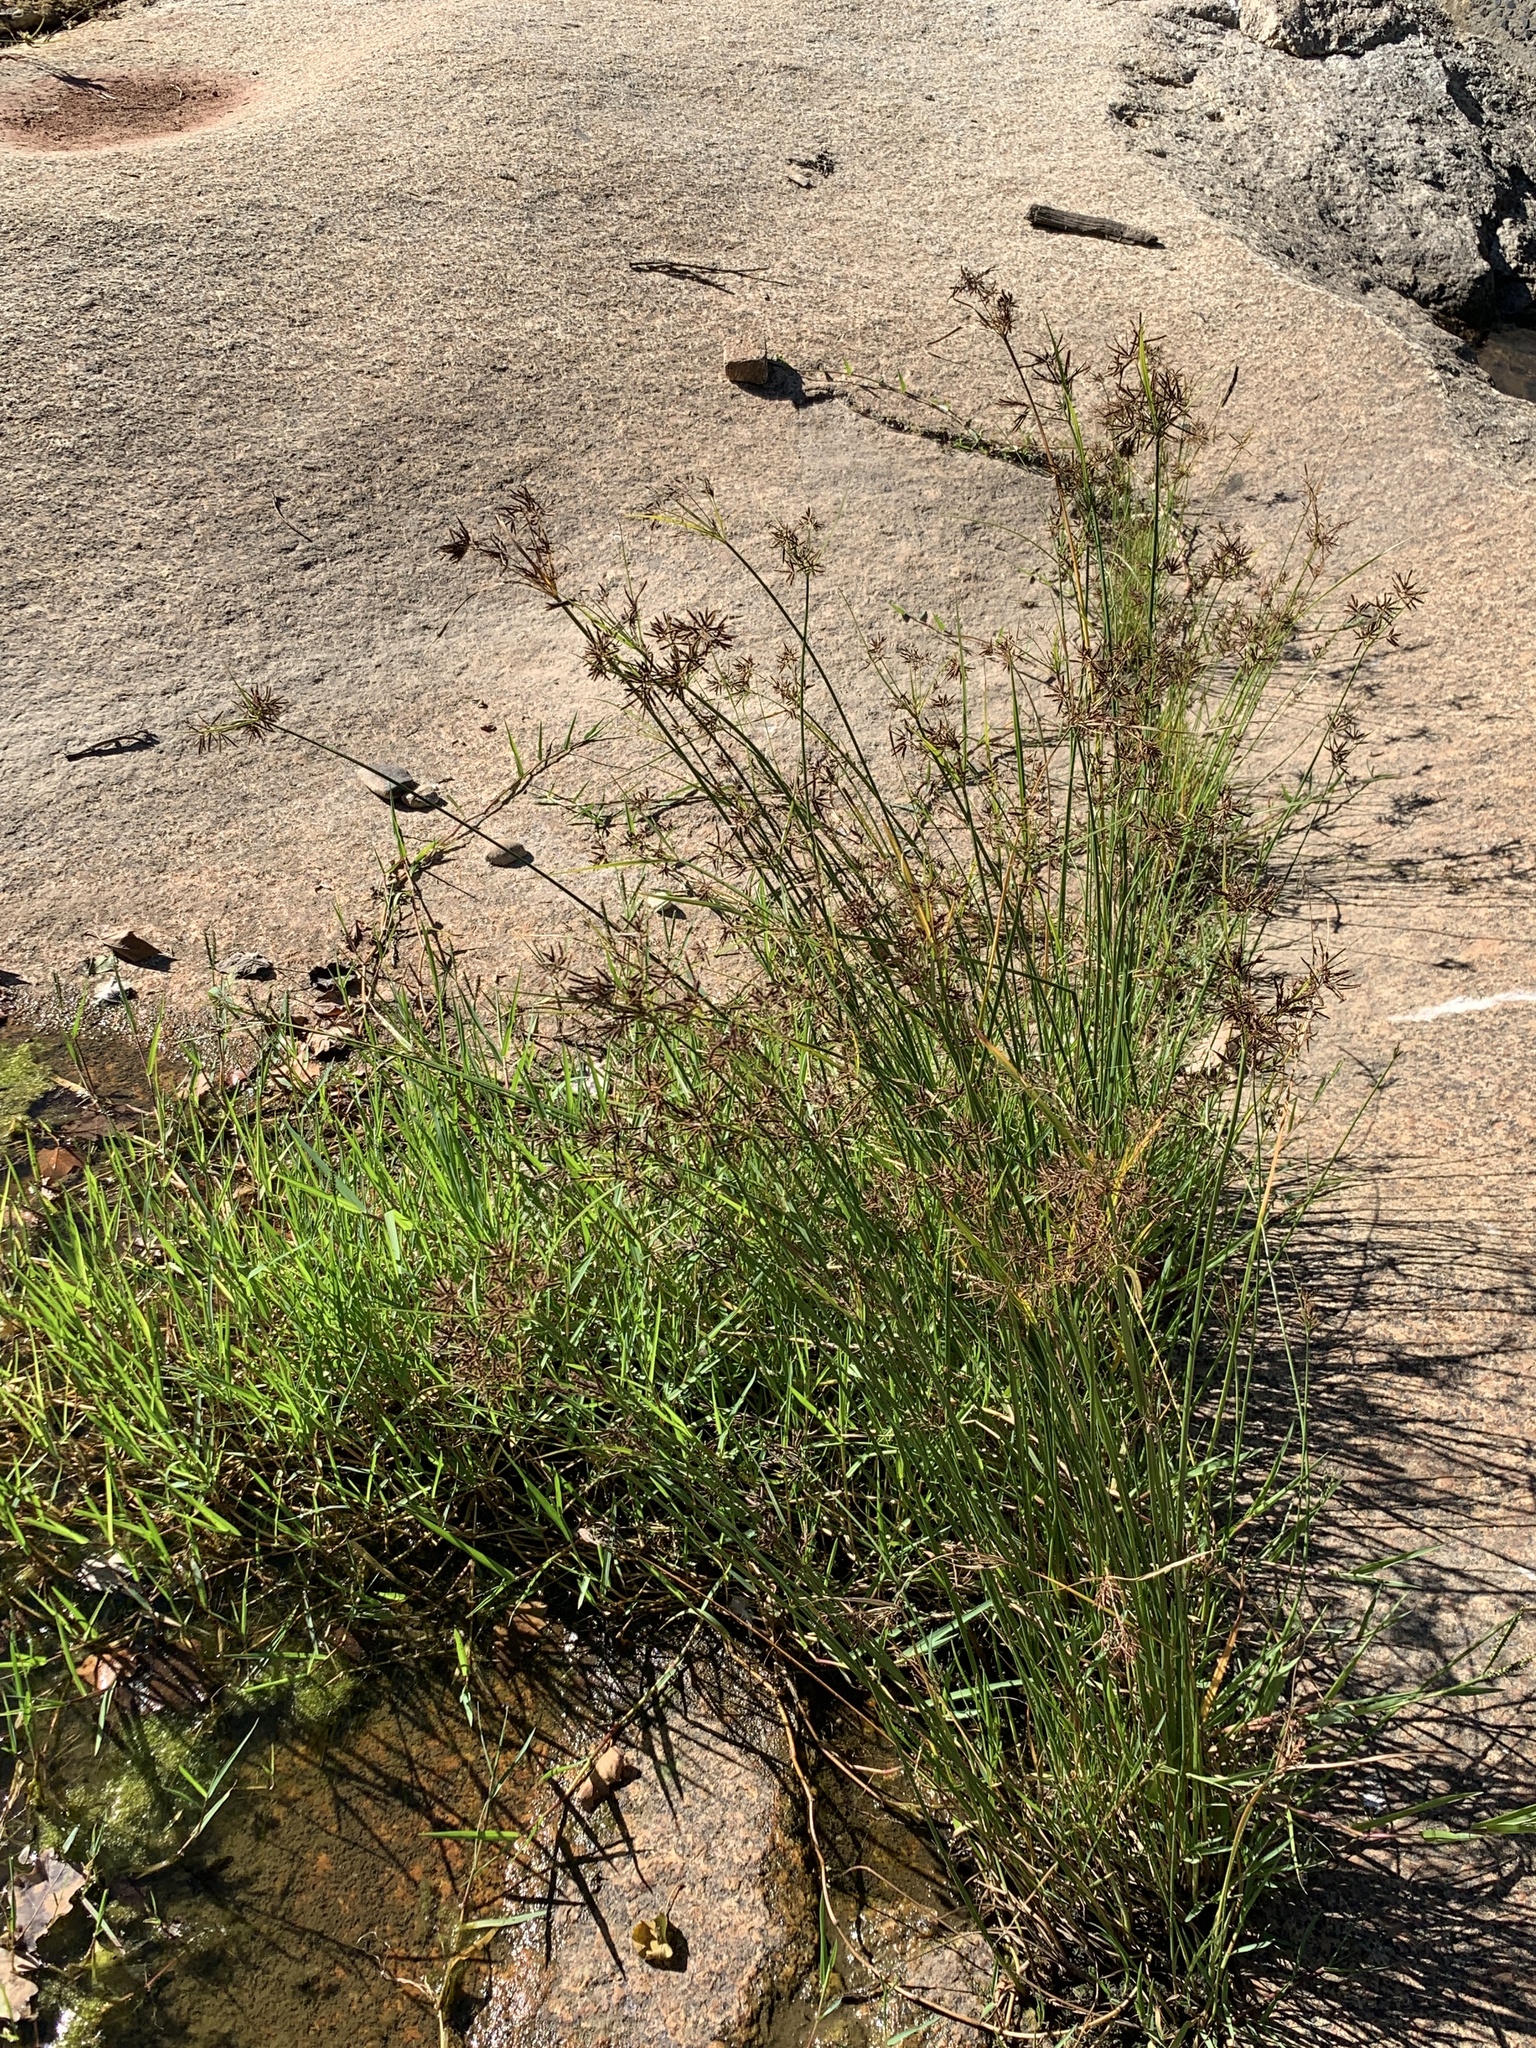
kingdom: Plantae
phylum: Tracheophyta
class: Liliopsida
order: Poales
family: Cyperaceae
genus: Cyperus
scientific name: Cyperus longus
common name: Galingale
